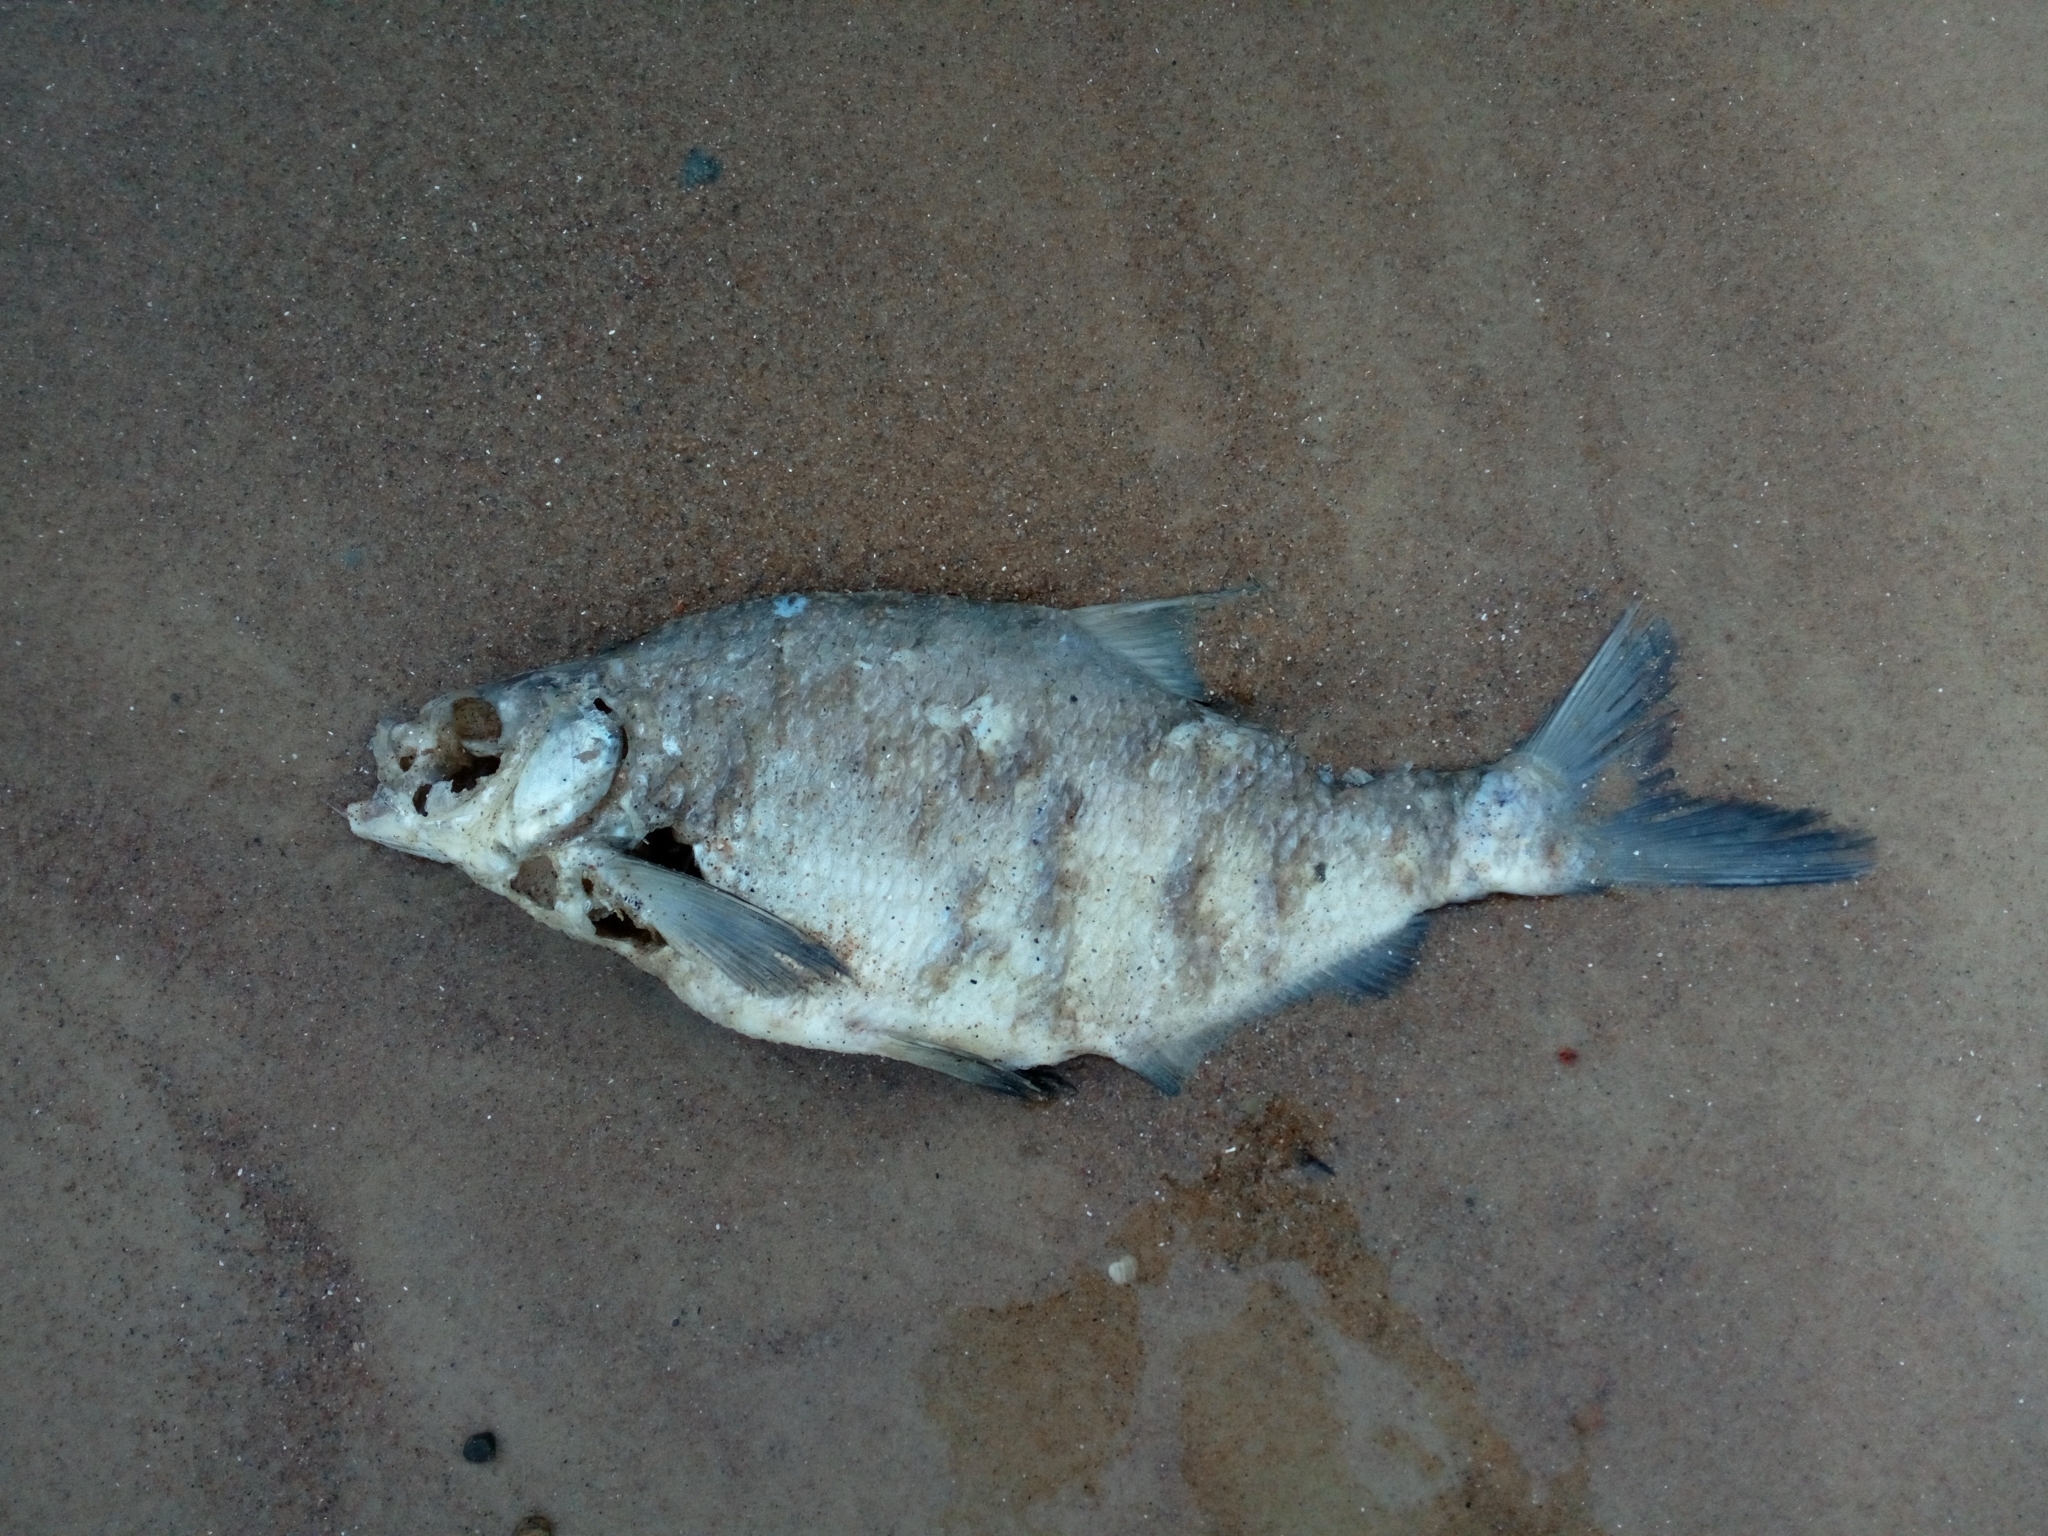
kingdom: Animalia
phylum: Chordata
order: Cypriniformes
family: Cyprinidae
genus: Abramis
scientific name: Abramis brama
